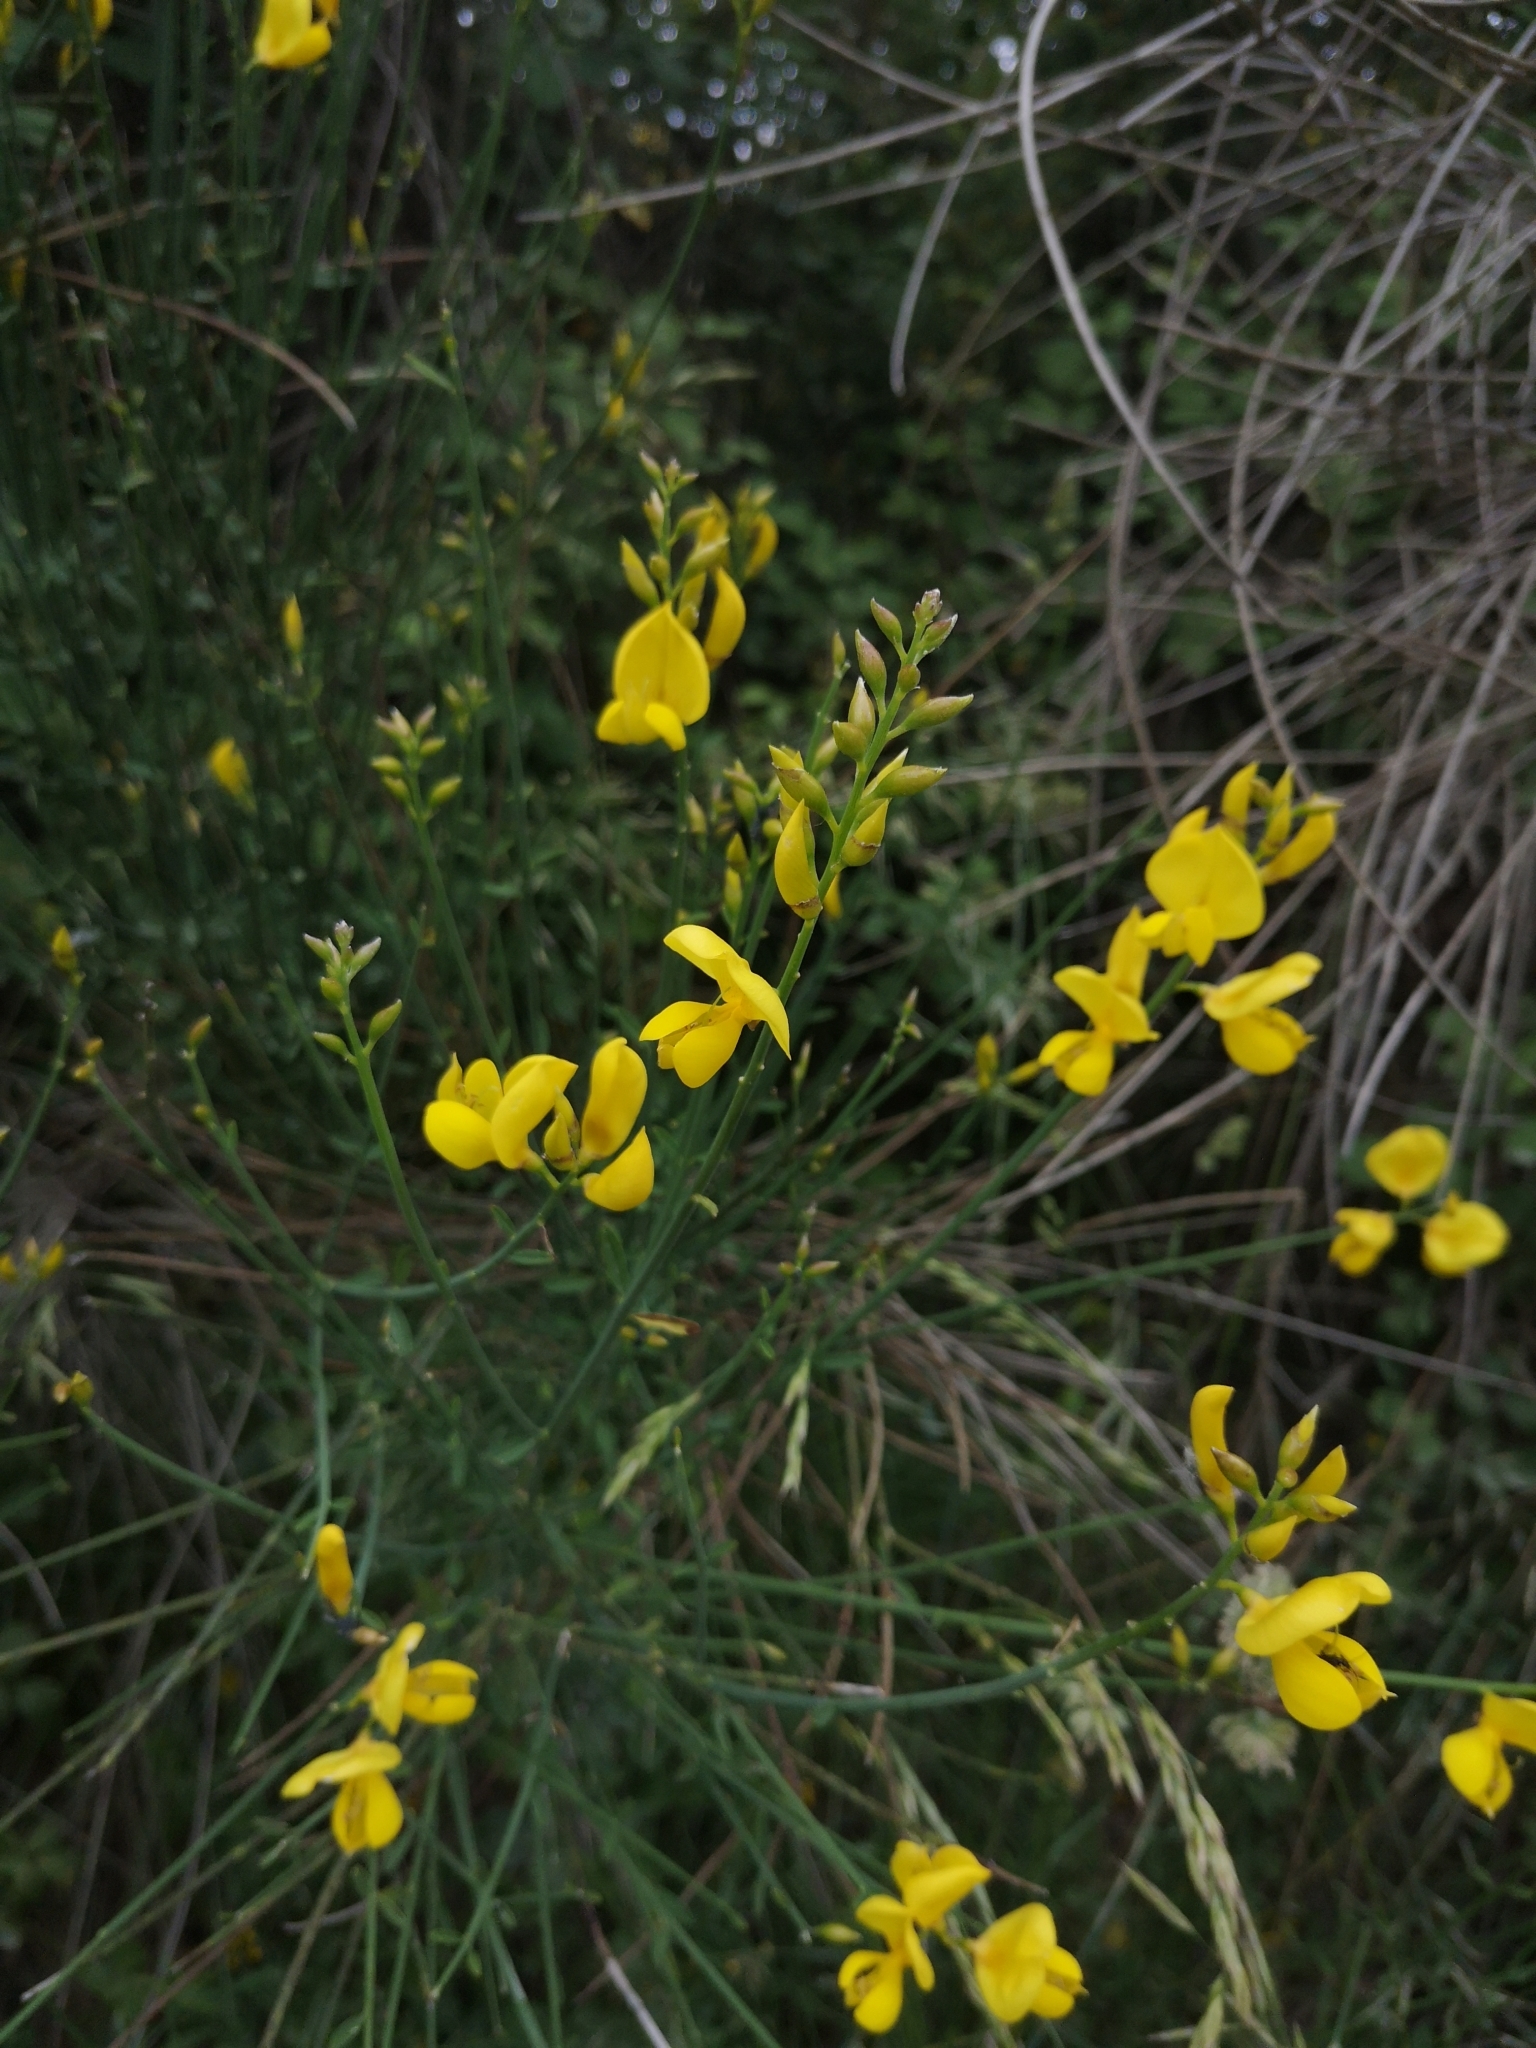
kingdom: Plantae
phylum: Tracheophyta
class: Magnoliopsida
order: Fabales
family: Fabaceae
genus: Spartium
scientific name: Spartium junceum
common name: Spanish broom
